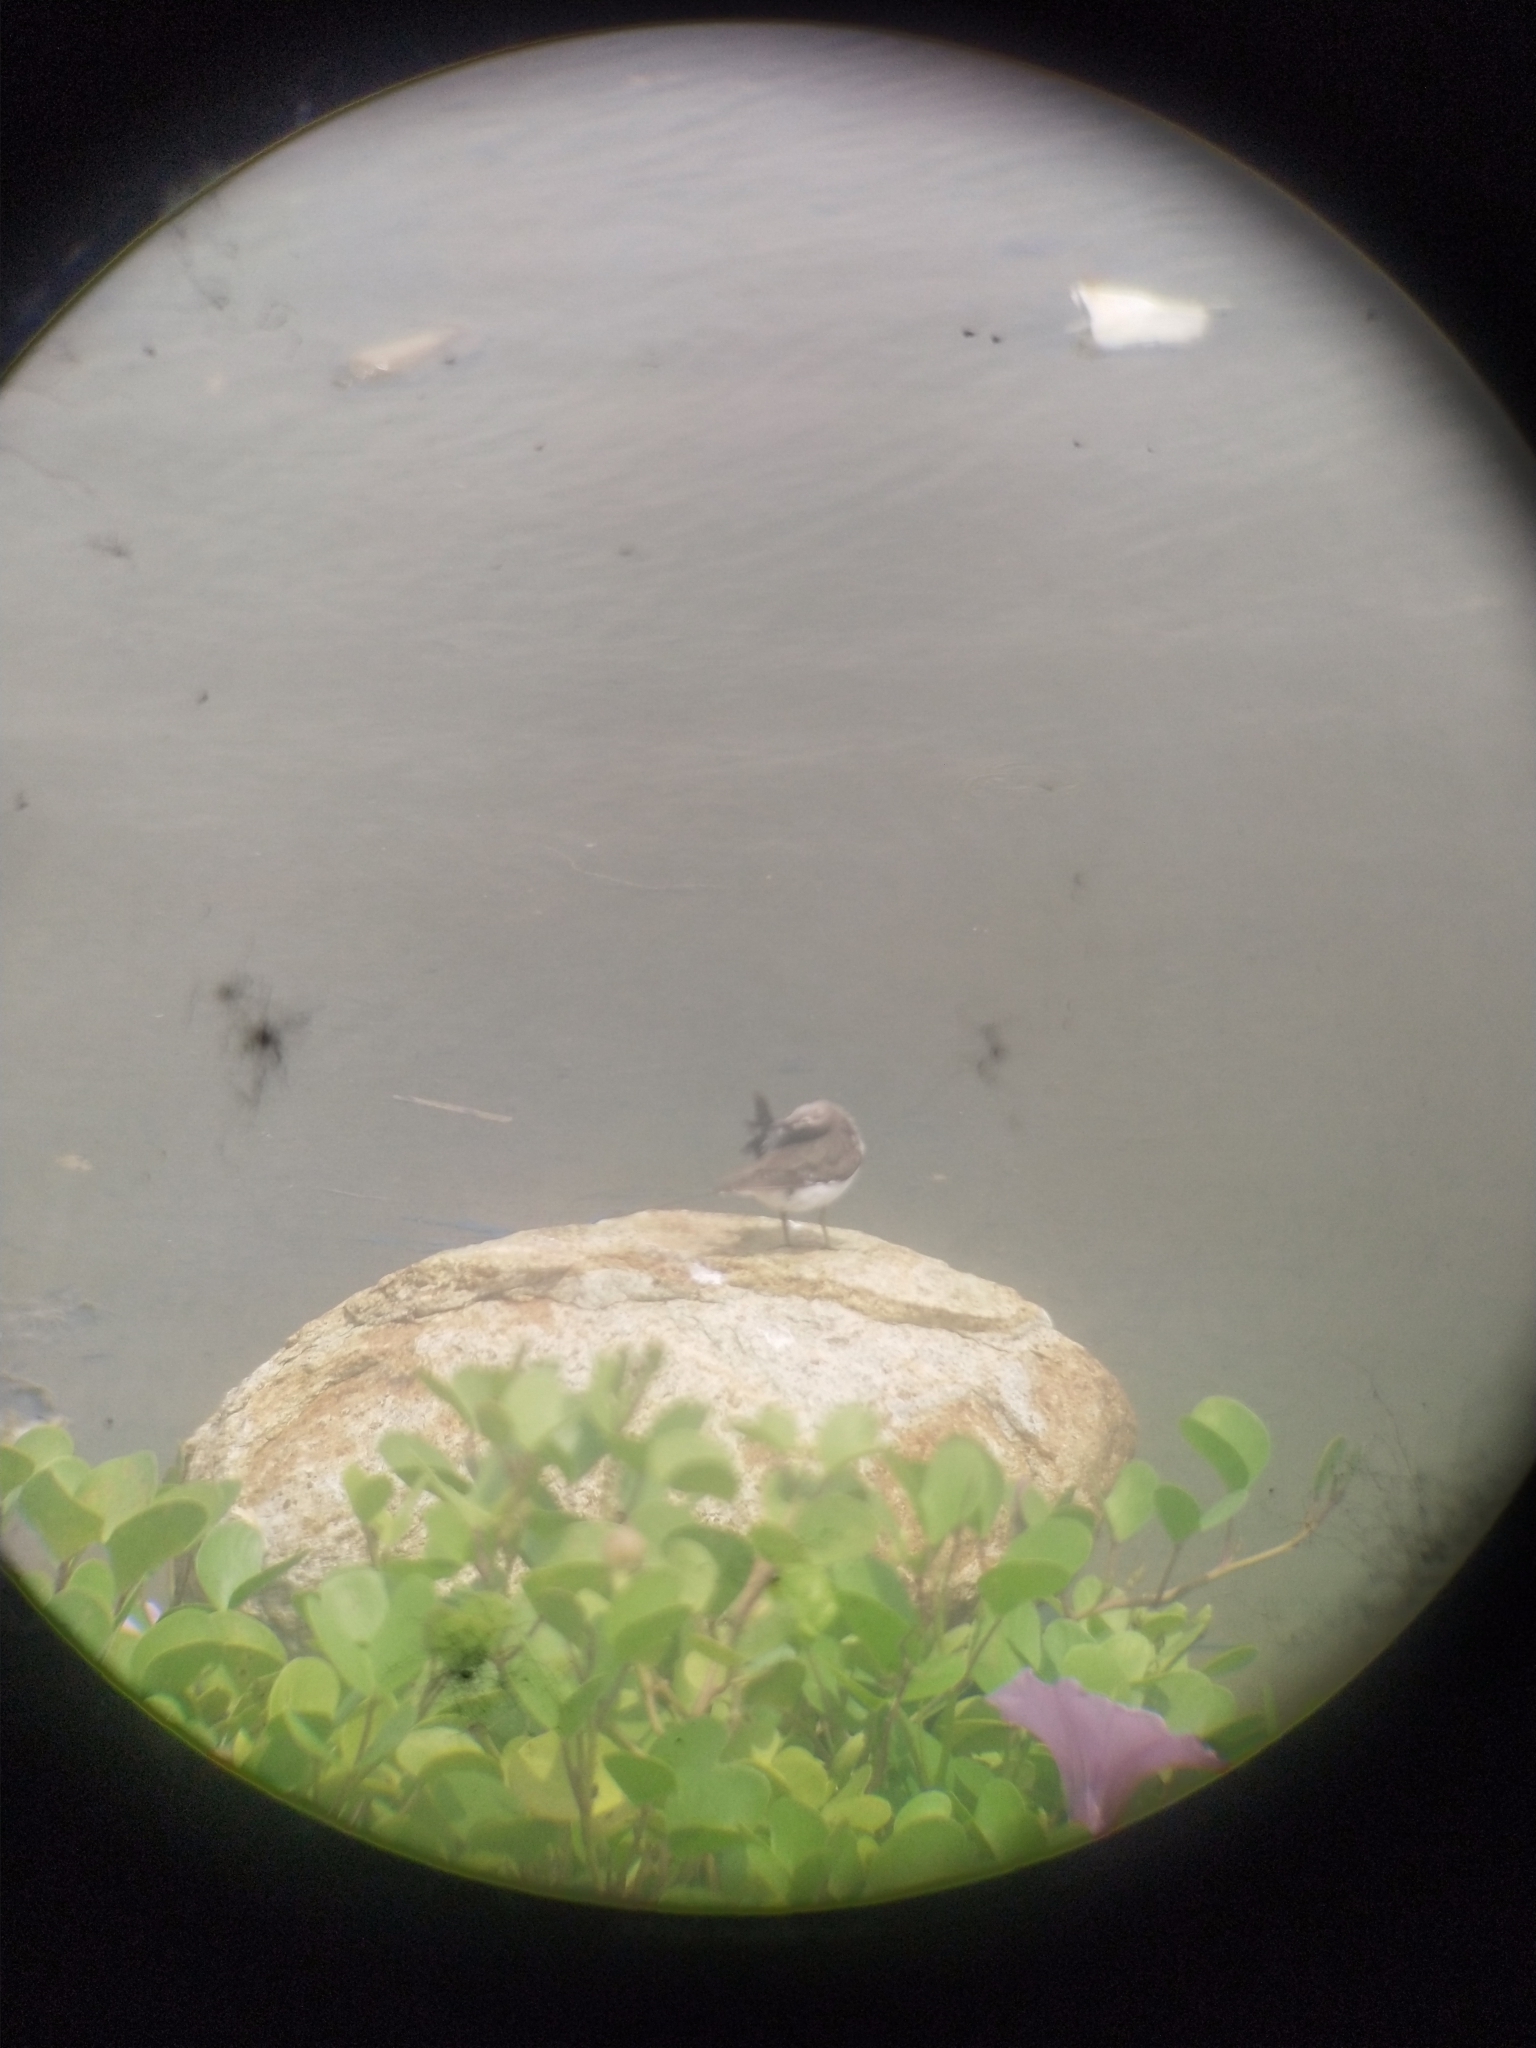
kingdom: Animalia
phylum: Chordata
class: Aves
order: Charadriiformes
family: Scolopacidae
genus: Actitis
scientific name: Actitis hypoleucos
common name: Common sandpiper
